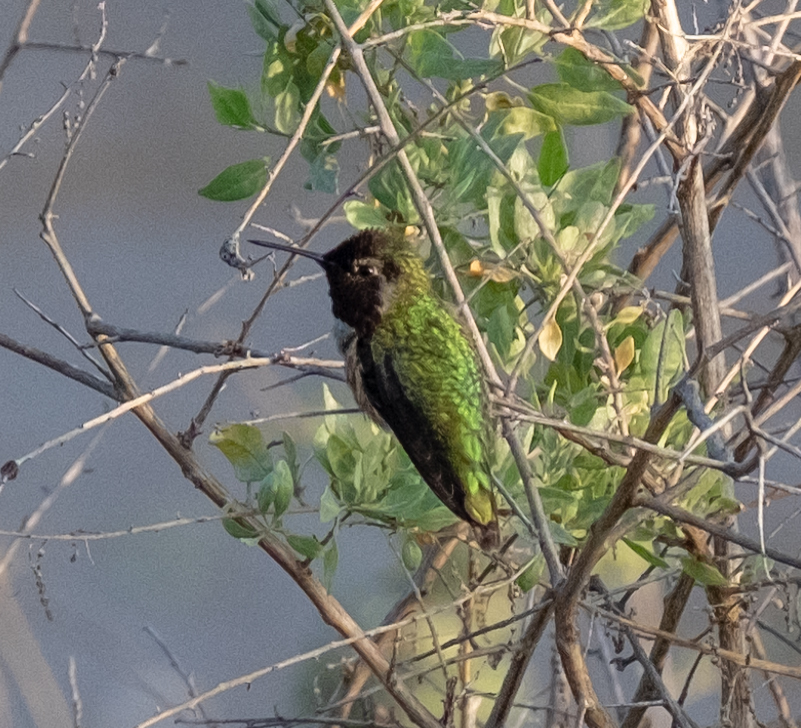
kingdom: Animalia
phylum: Chordata
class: Aves
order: Apodiformes
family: Trochilidae
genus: Calypte
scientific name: Calypte anna
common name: Anna's hummingbird
